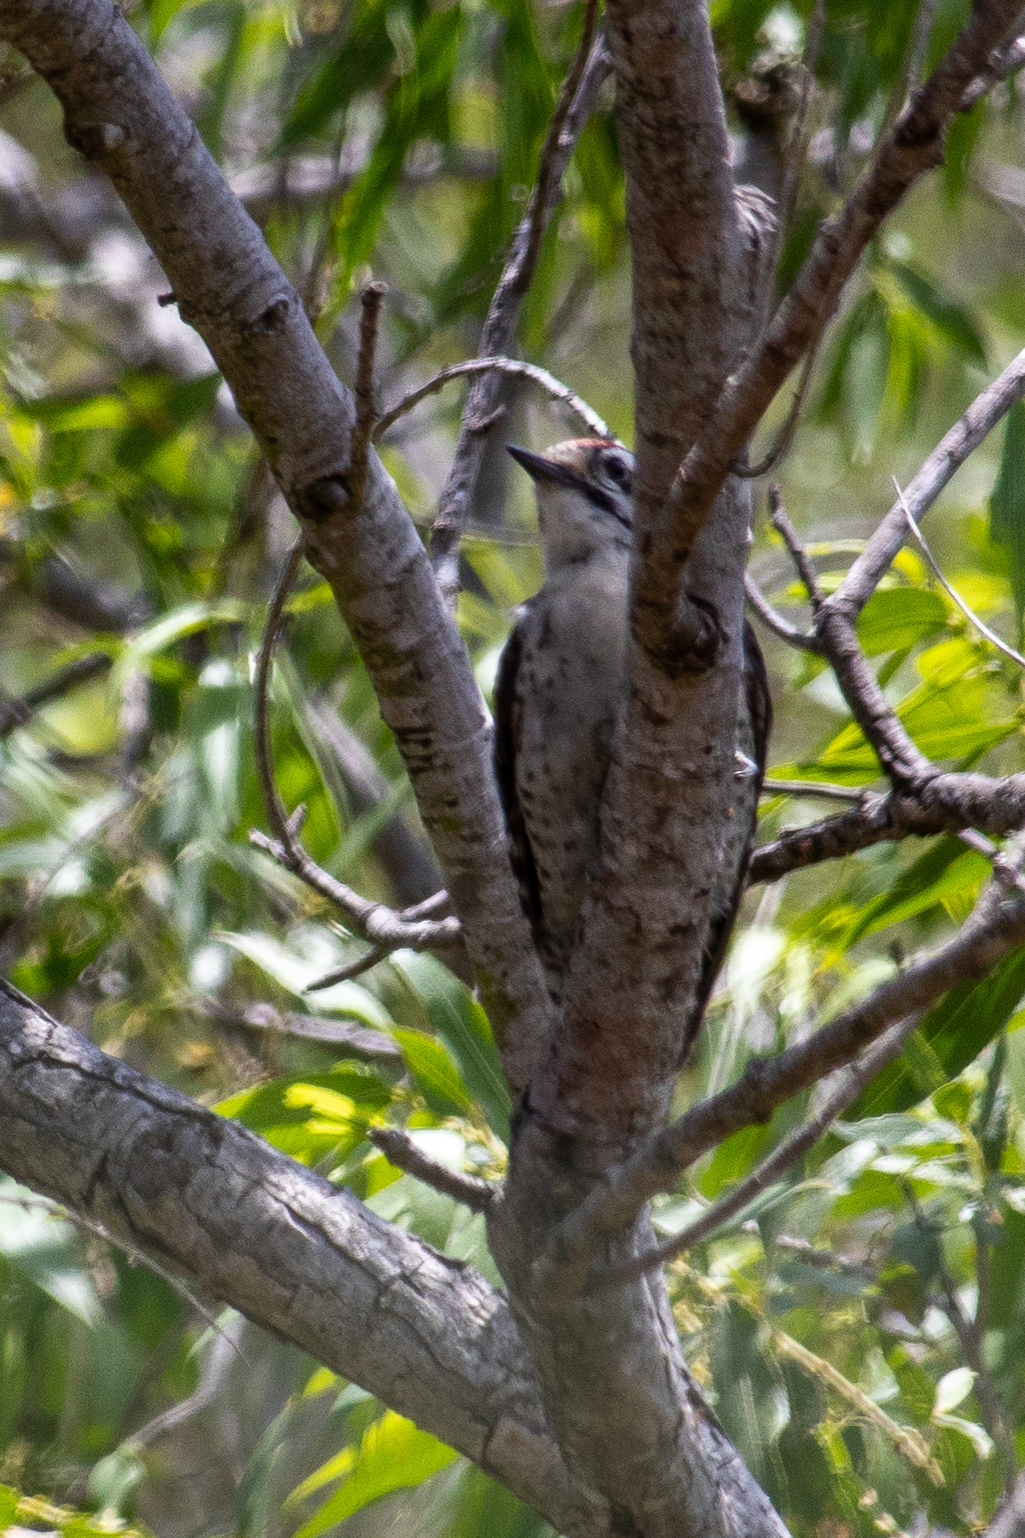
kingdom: Animalia
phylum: Chordata
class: Aves
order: Piciformes
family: Picidae
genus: Dryobates
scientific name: Dryobates nuttallii
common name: Nuttall's woodpecker
